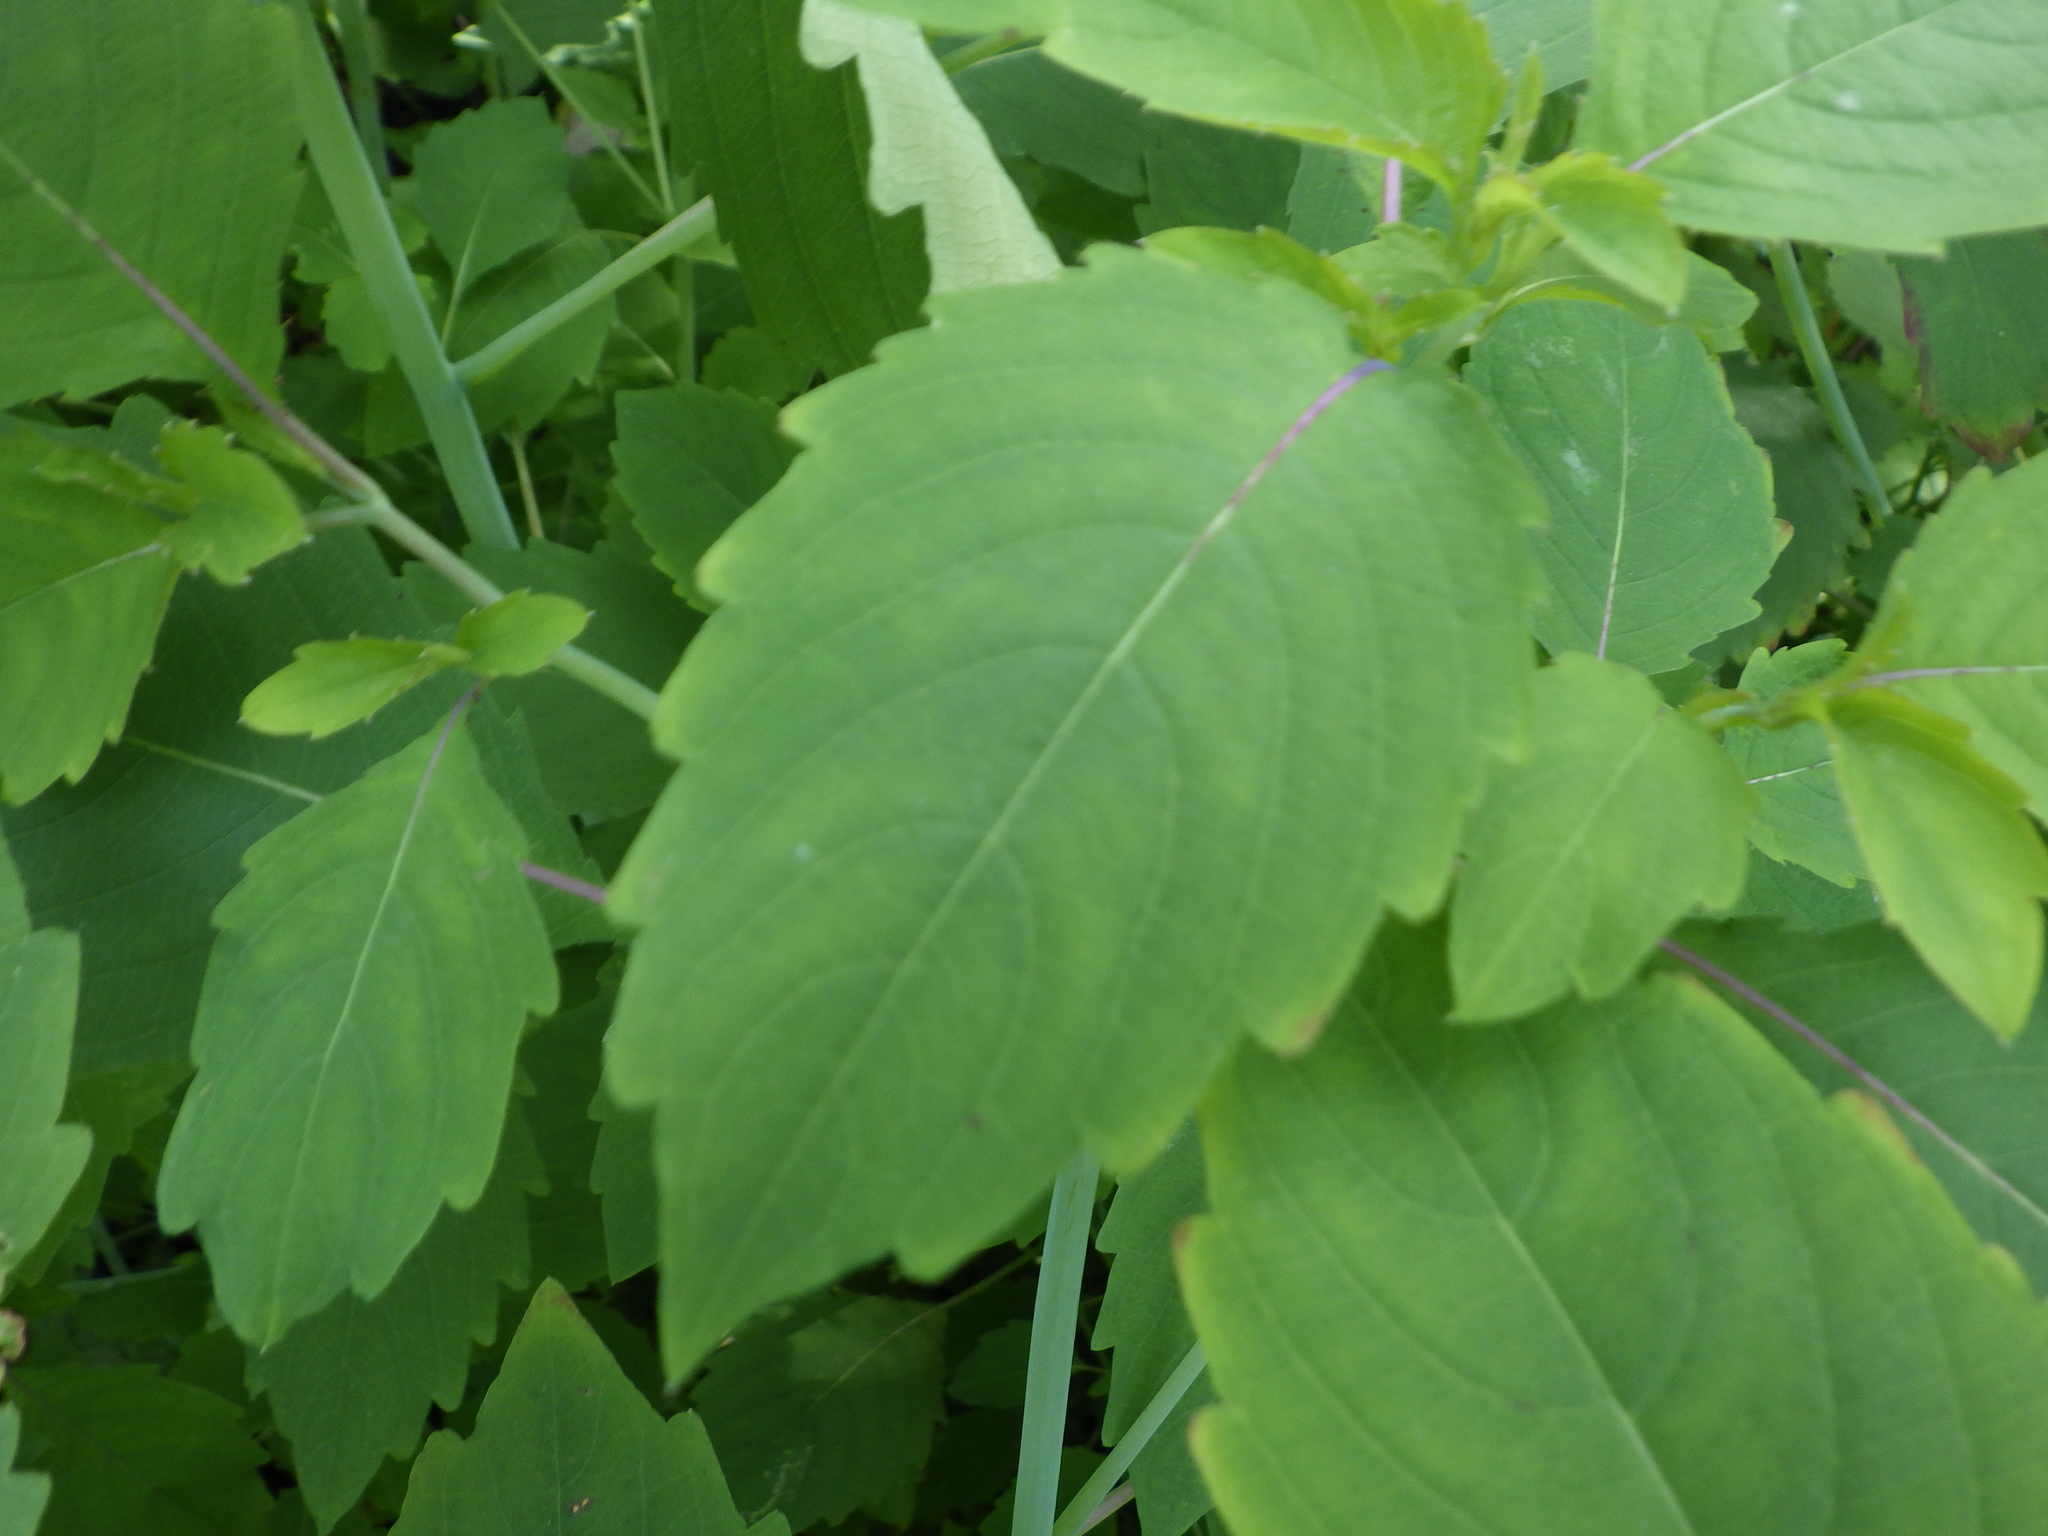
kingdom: Plantae
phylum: Tracheophyta
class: Magnoliopsida
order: Ericales
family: Balsaminaceae
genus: Impatiens
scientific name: Impatiens capensis
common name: Orange balsam
